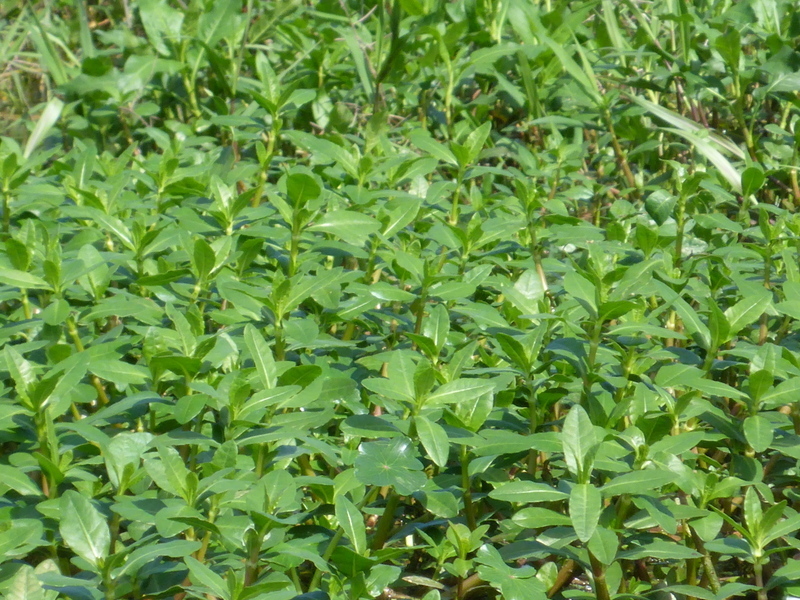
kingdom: Plantae
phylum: Tracheophyta
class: Magnoliopsida
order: Caryophyllales
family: Amaranthaceae
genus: Alternanthera
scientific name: Alternanthera philoxeroides
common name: Alligatorweed
